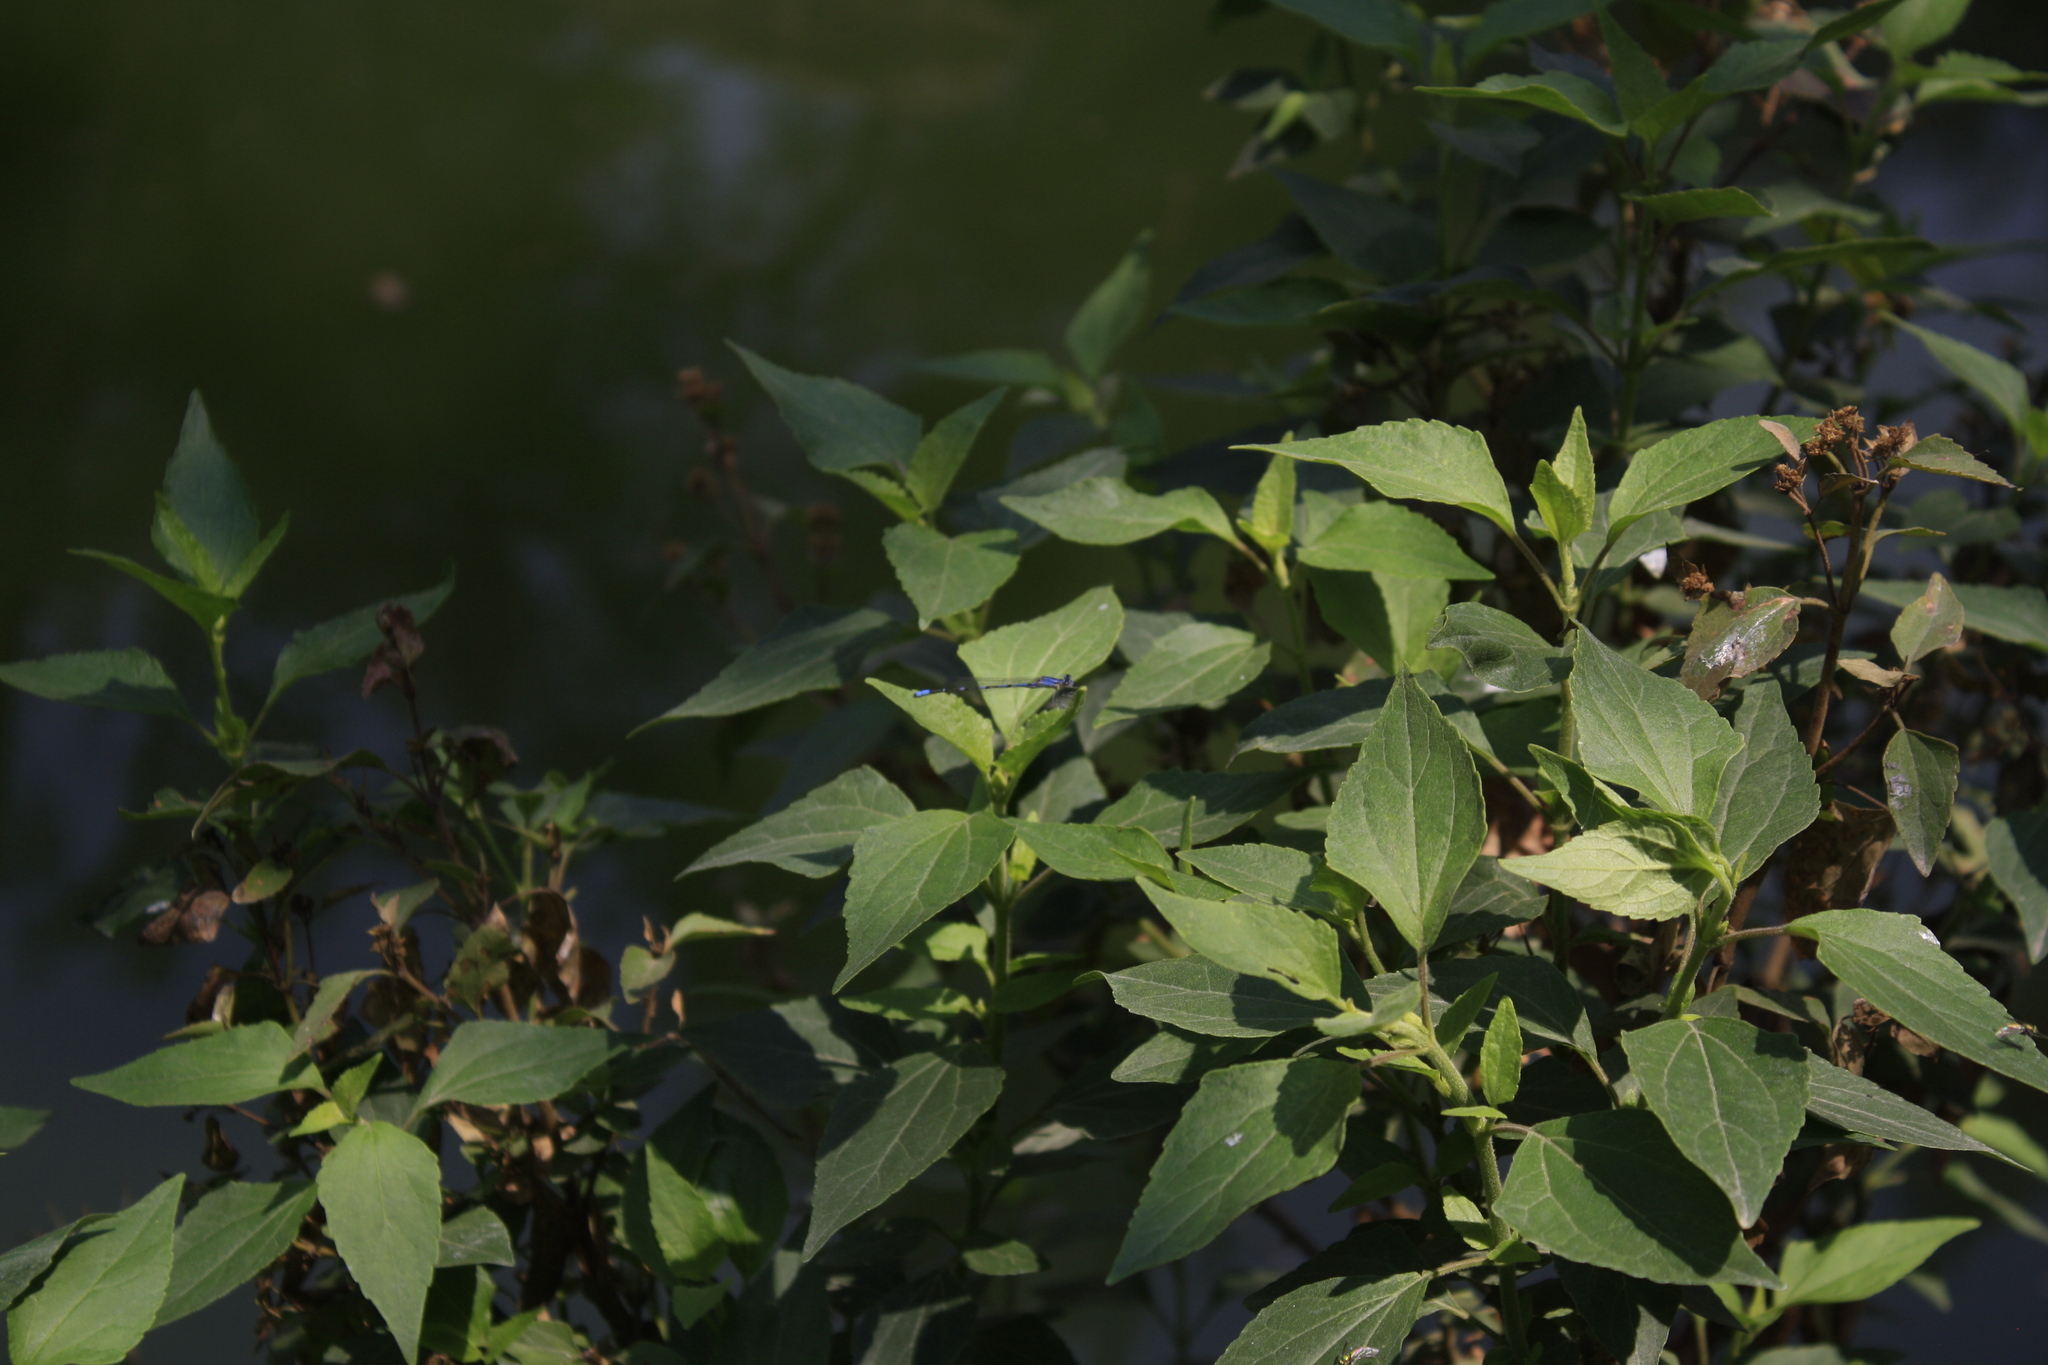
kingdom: Animalia
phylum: Arthropoda
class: Insecta
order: Odonata
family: Coenagrionidae
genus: Enallagma
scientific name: Enallagma civile
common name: Damselfly
